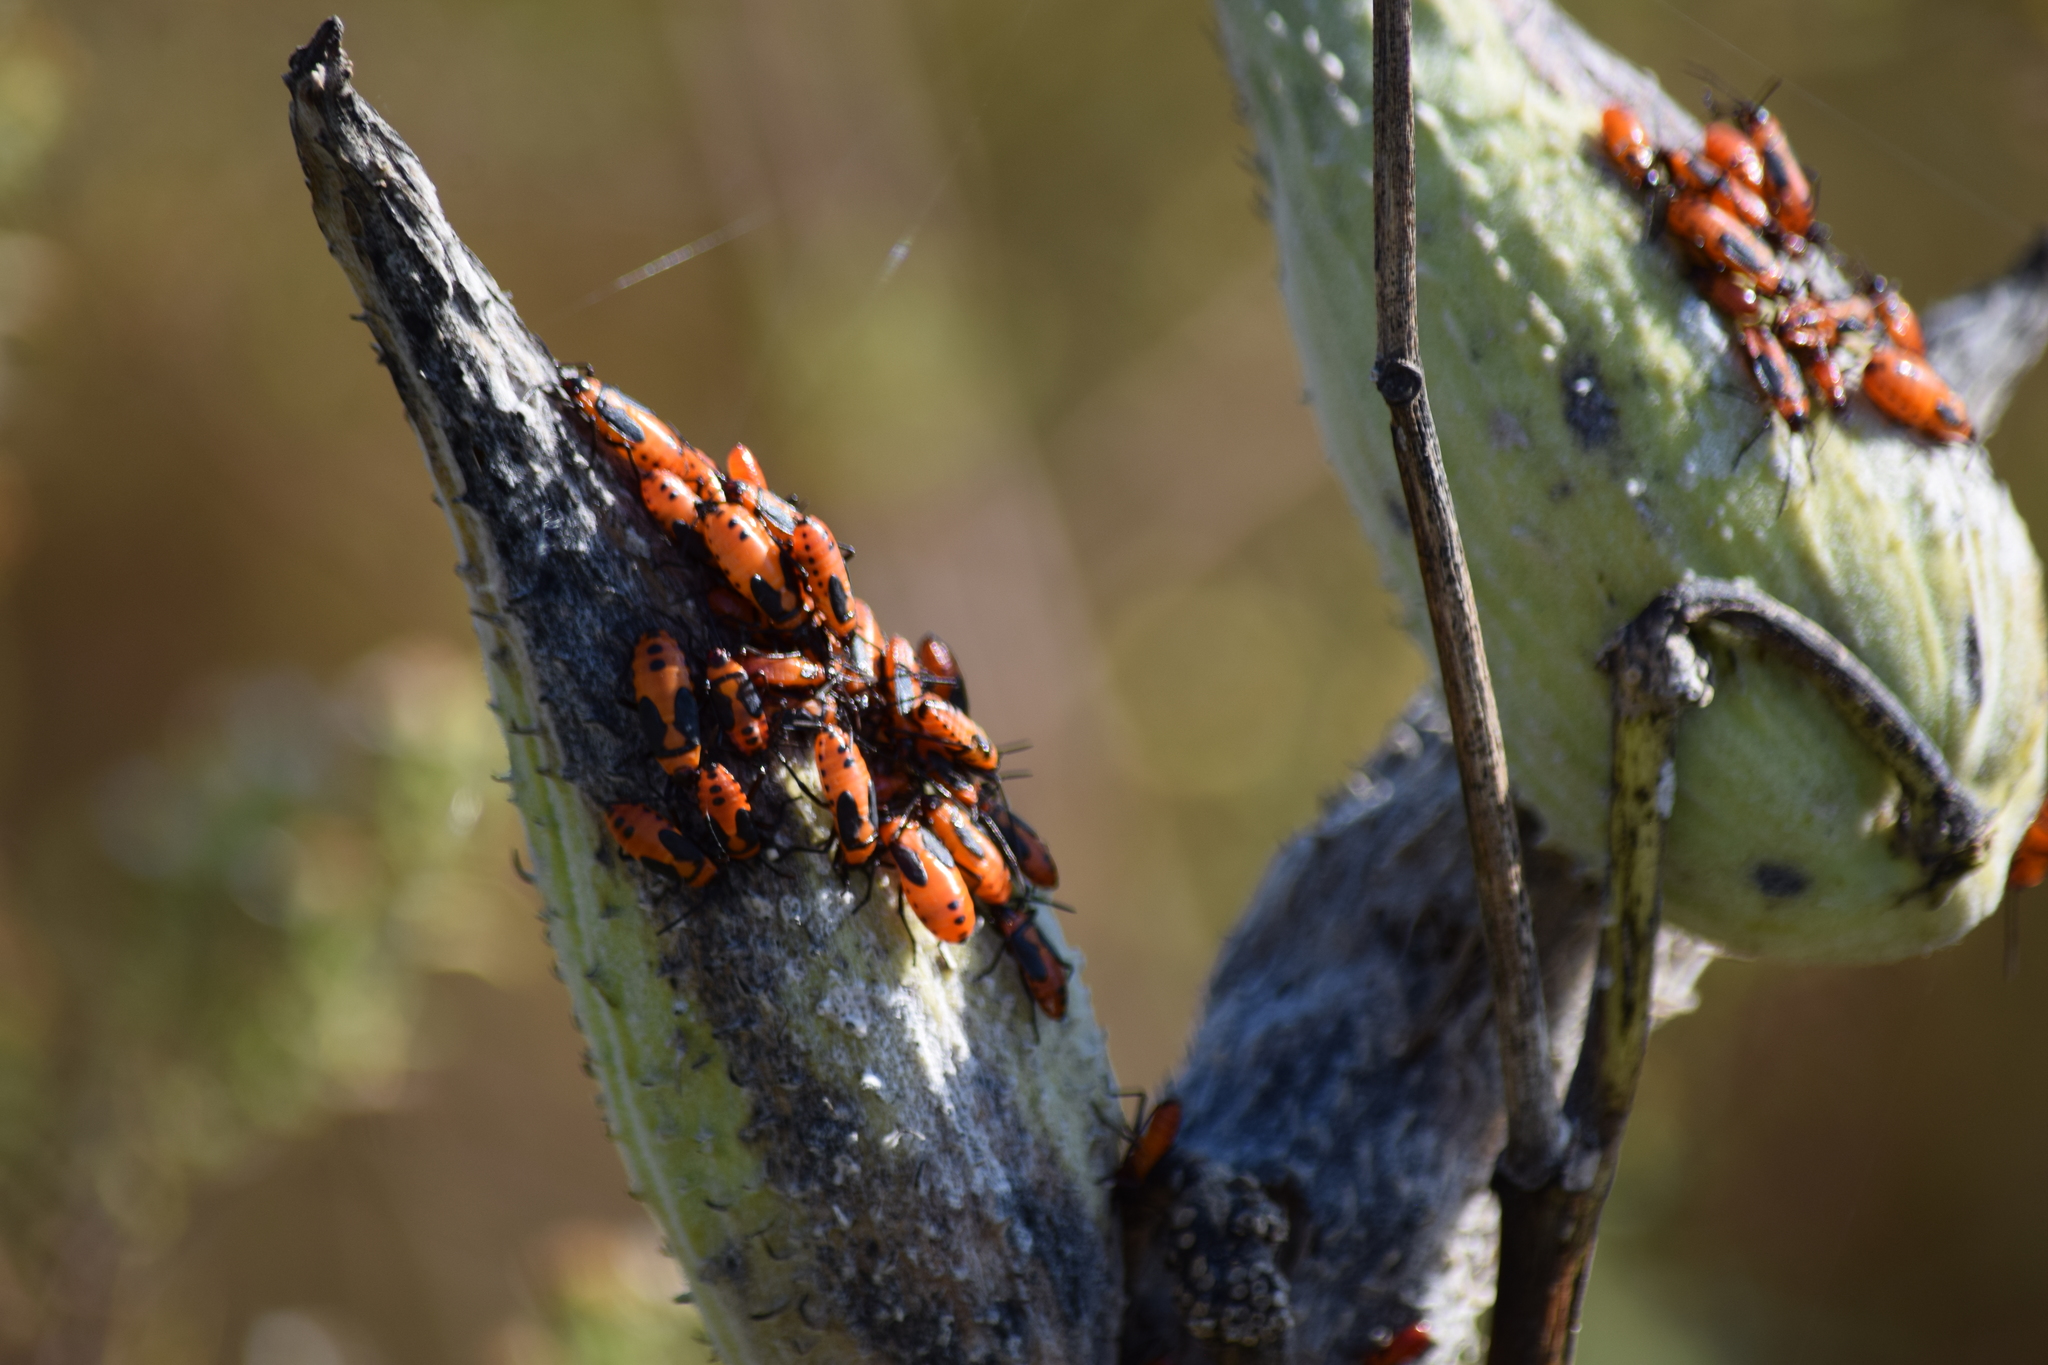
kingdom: Animalia
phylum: Arthropoda
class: Insecta
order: Hemiptera
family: Lygaeidae
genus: Oncopeltus
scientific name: Oncopeltus fasciatus
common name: Large milkweed bug
